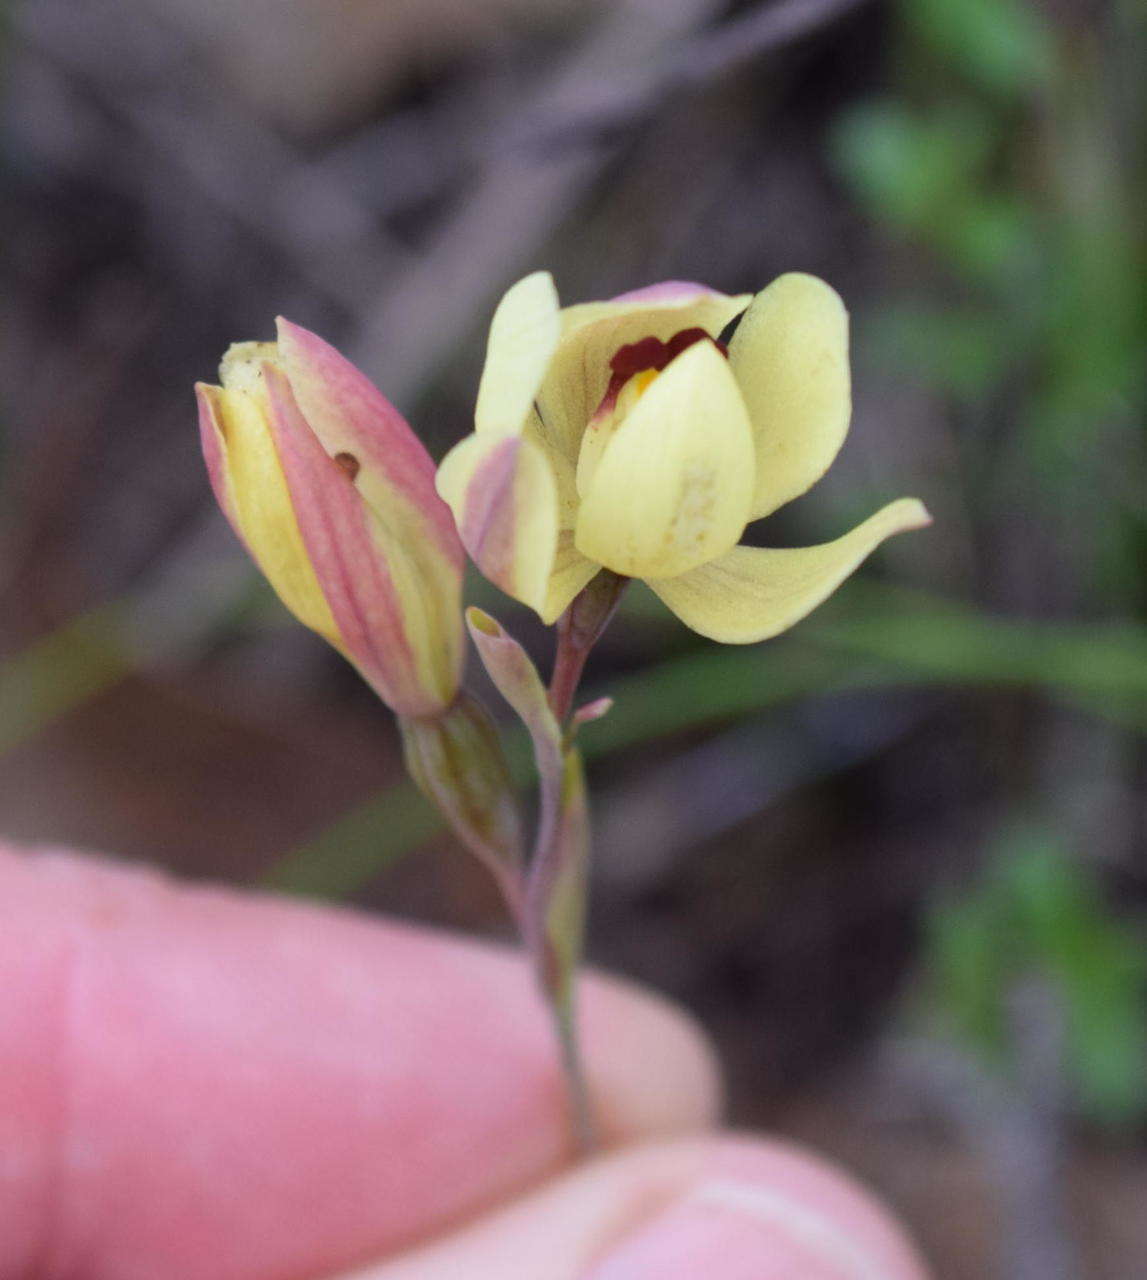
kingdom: Plantae
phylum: Tracheophyta
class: Liliopsida
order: Asparagales
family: Orchidaceae
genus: Thelymitra
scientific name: Thelymitra antennifera
